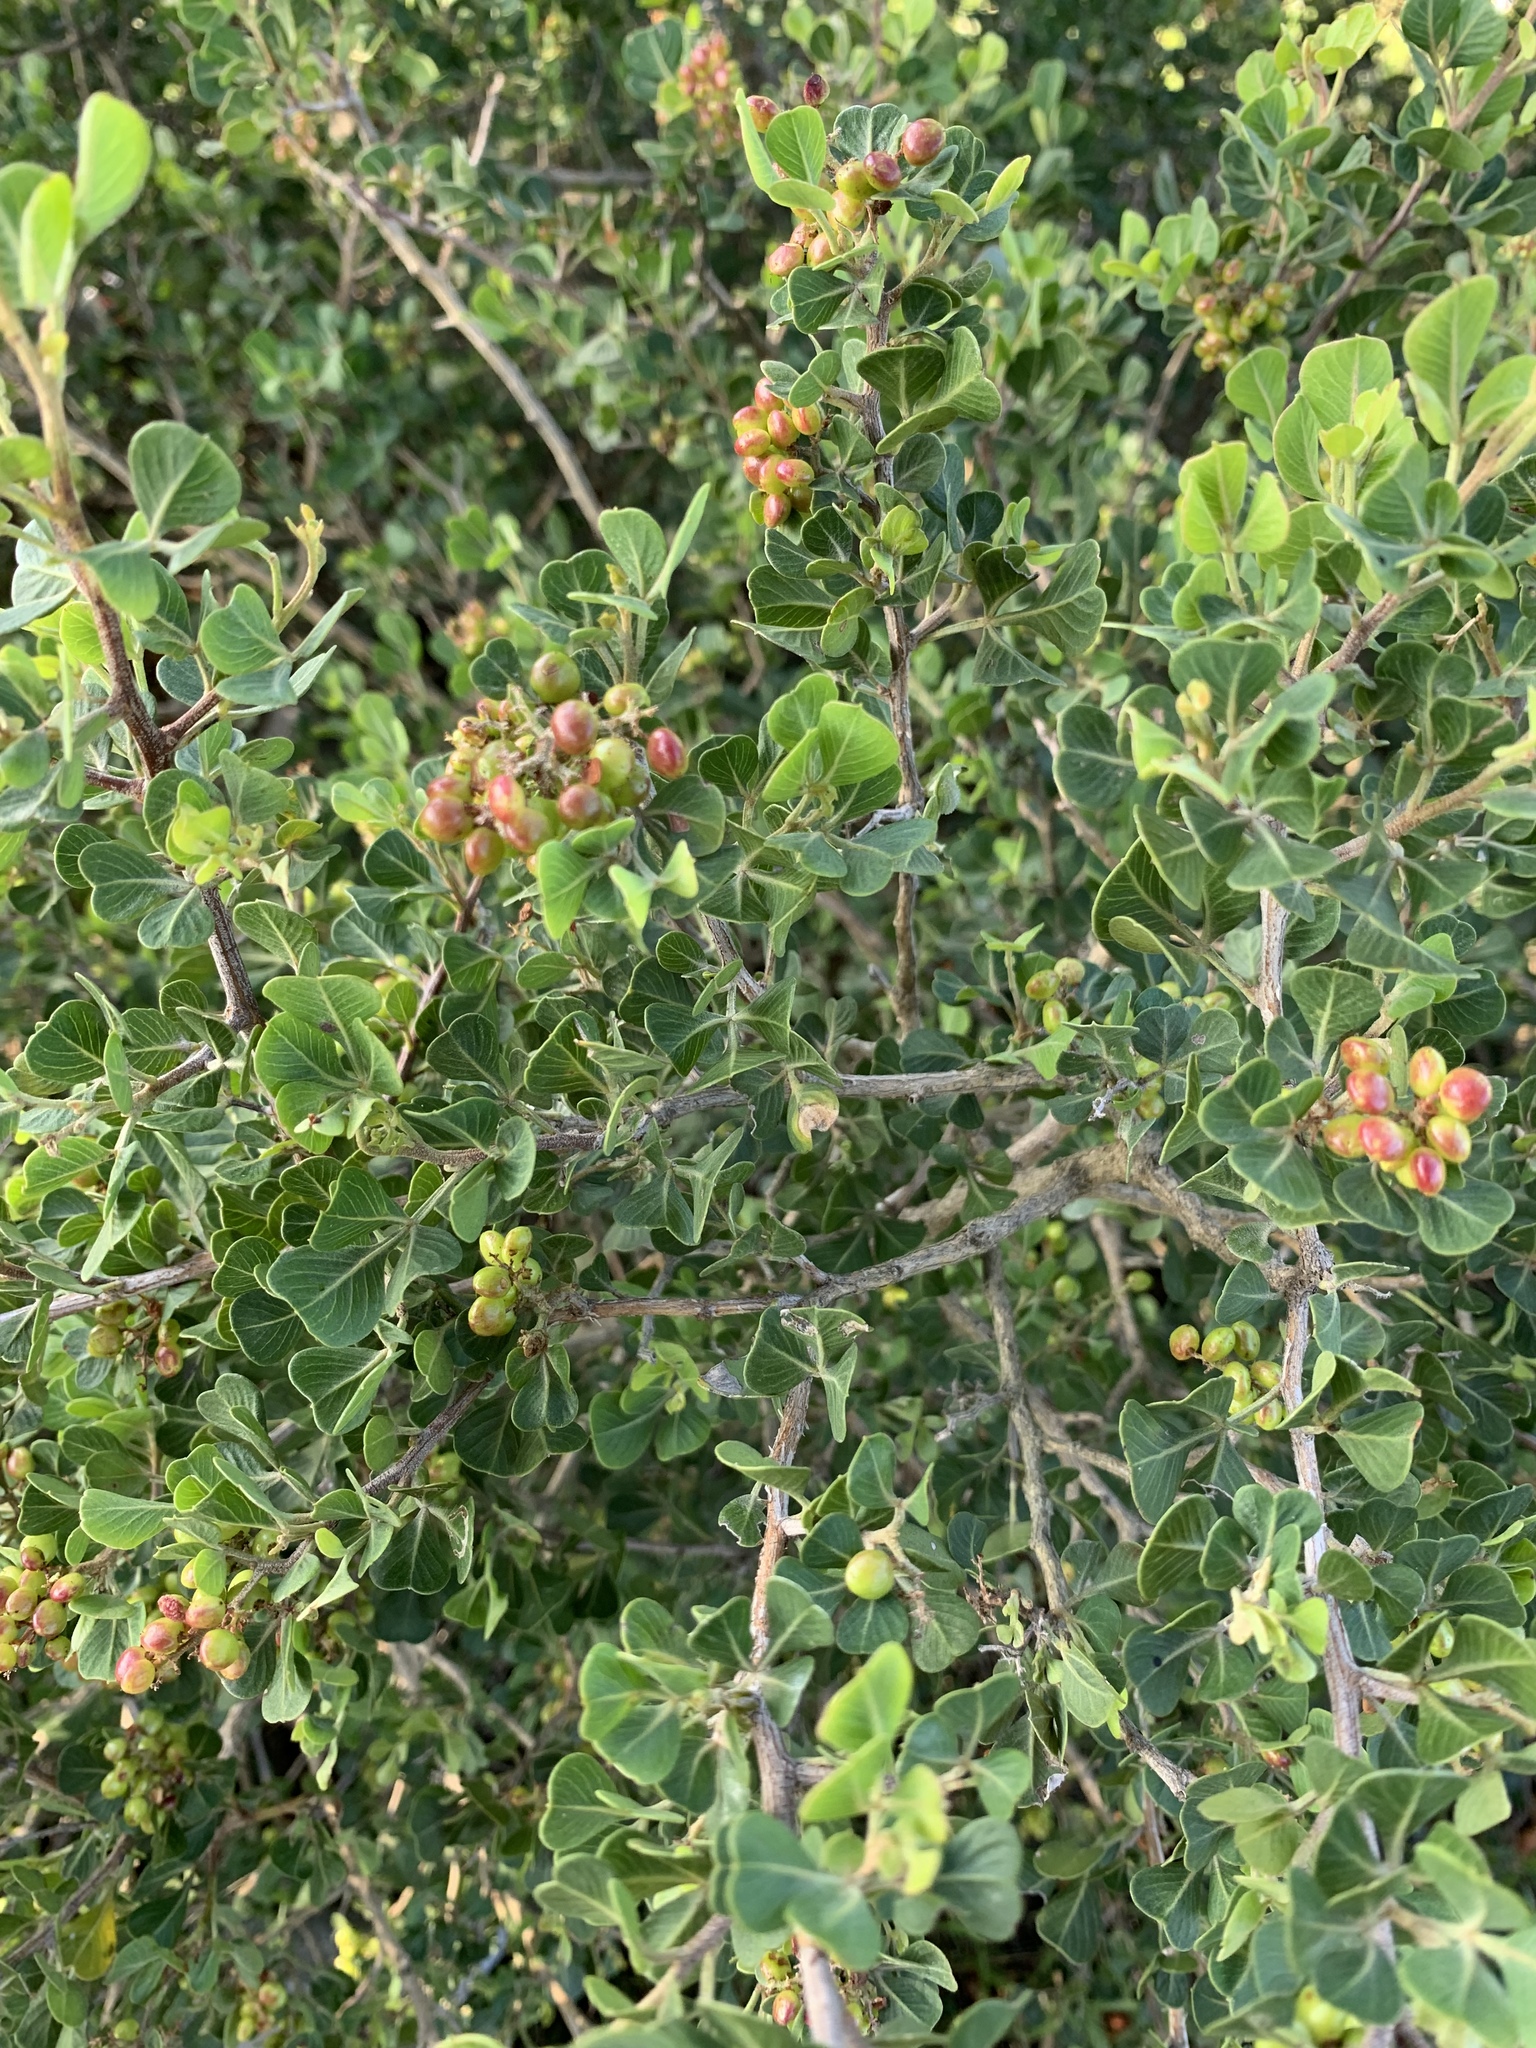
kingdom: Plantae
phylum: Tracheophyta
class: Magnoliopsida
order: Sapindales
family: Anacardiaceae
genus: Searsia
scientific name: Searsia glauca
